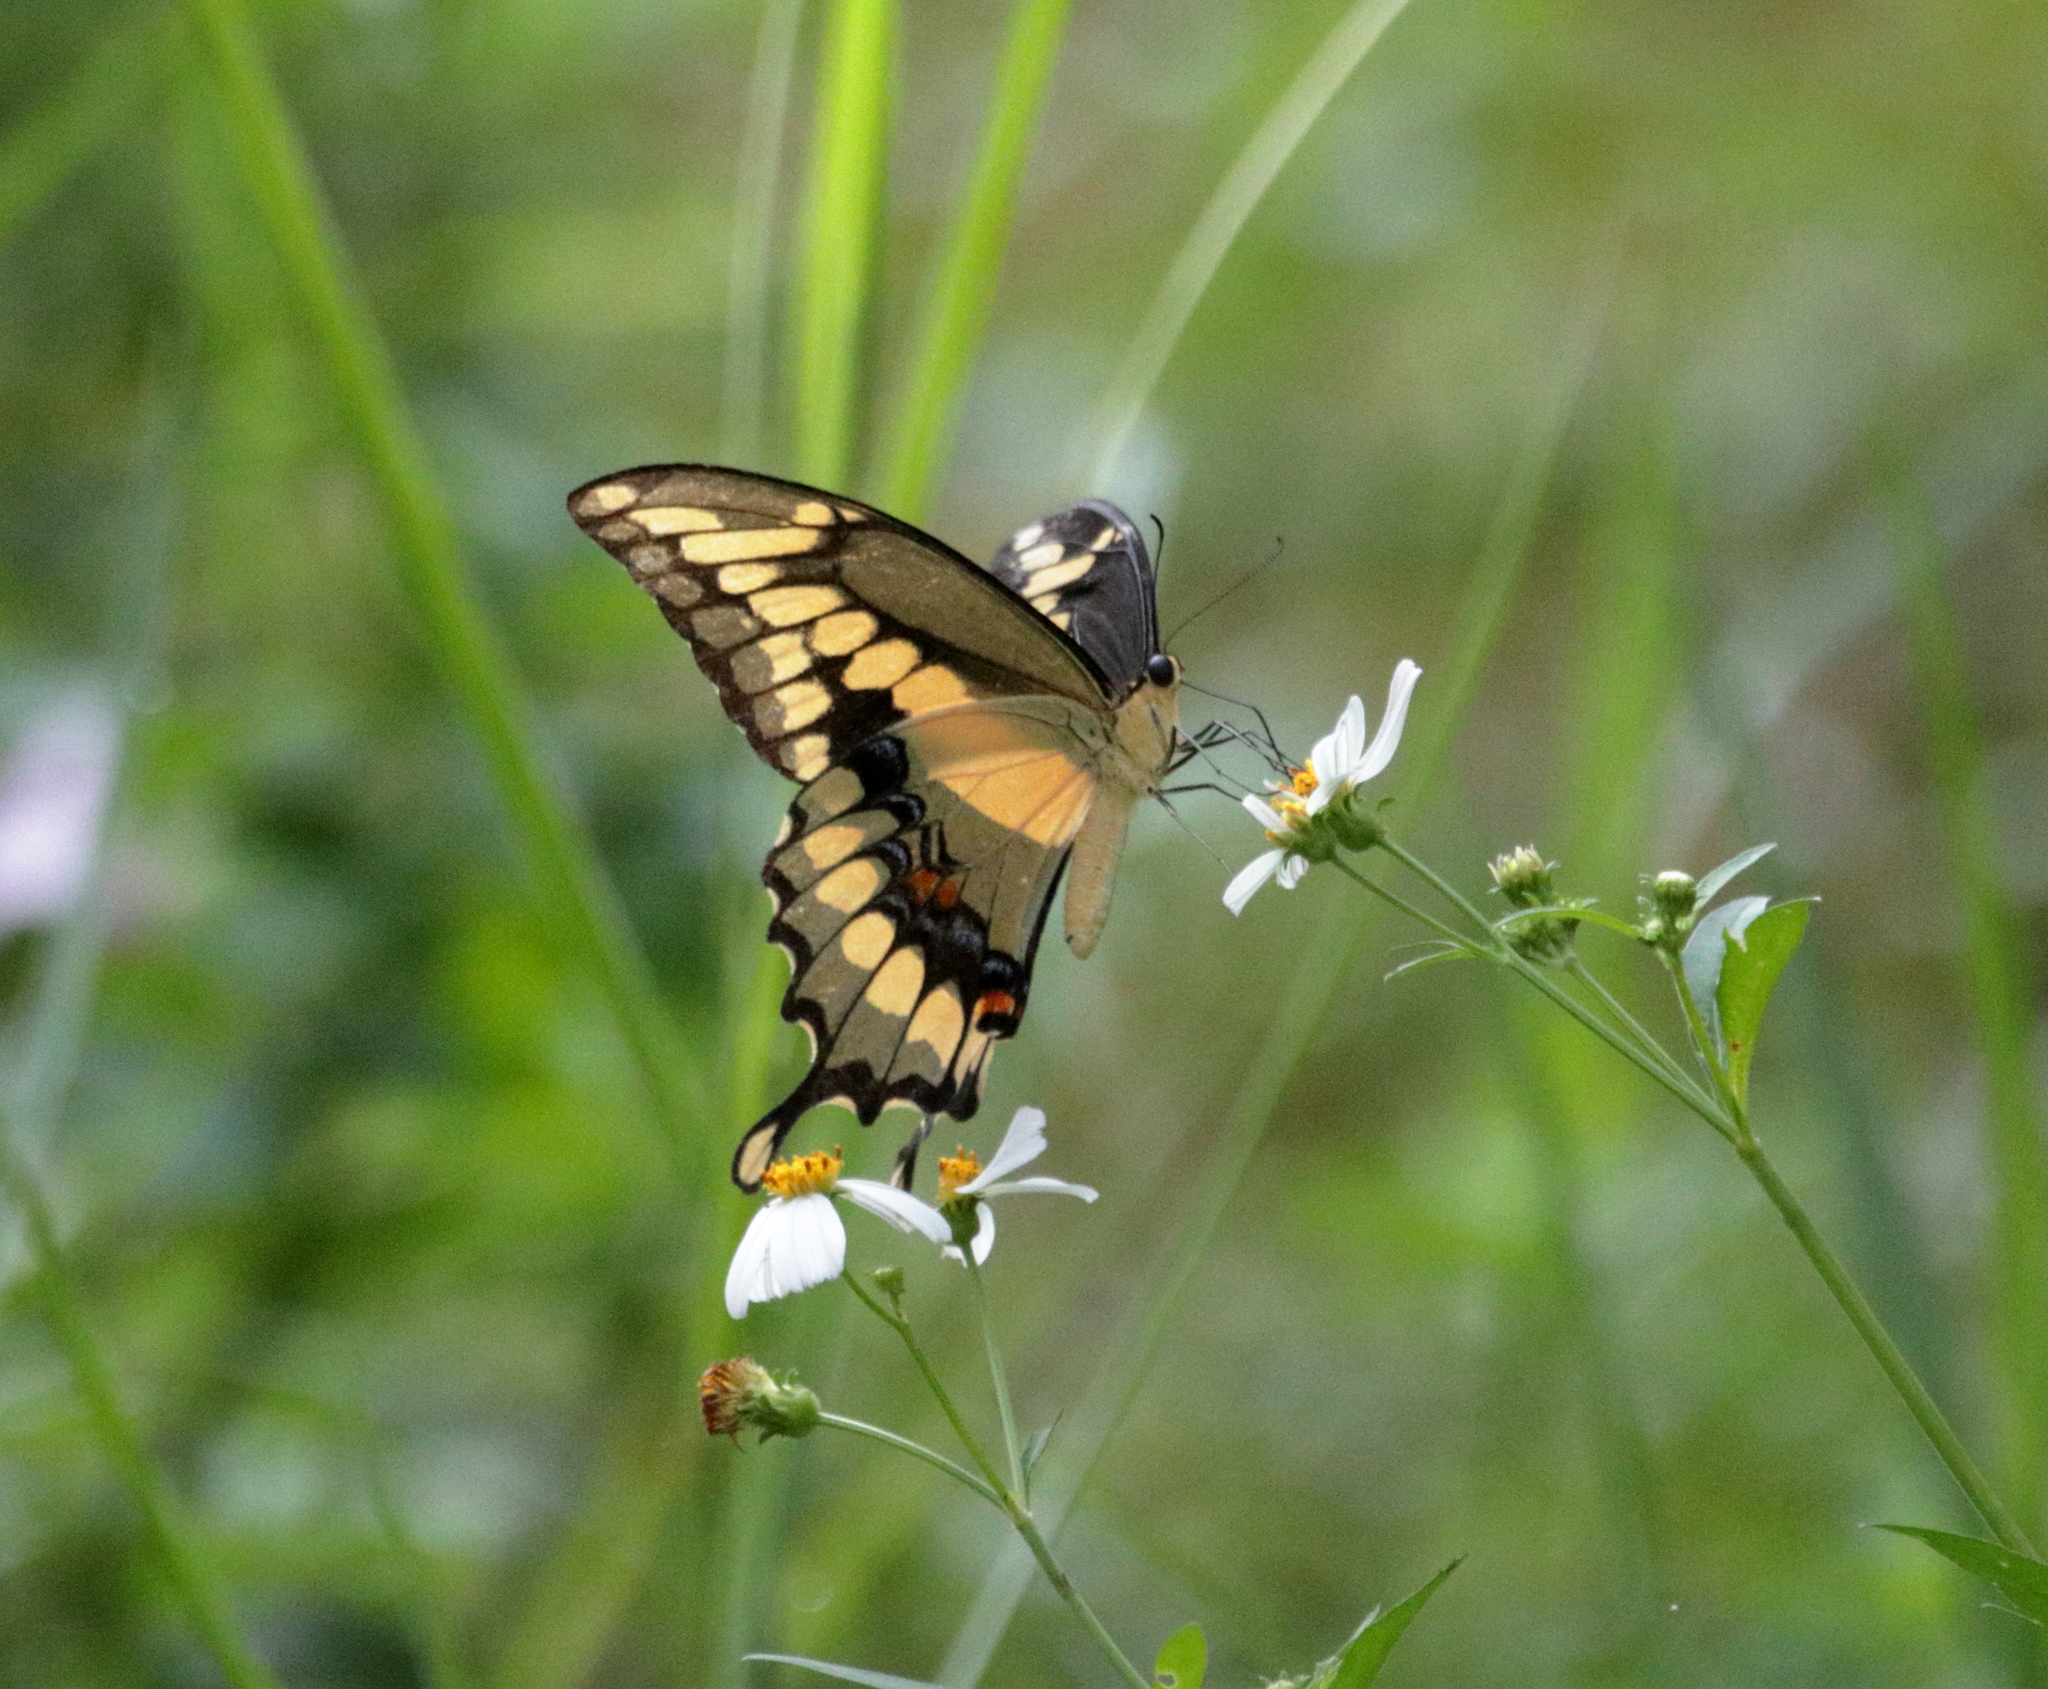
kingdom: Animalia
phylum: Arthropoda
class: Insecta
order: Lepidoptera
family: Papilionidae
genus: Papilio
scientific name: Papilio cresphontes
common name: Giant swallowtail
